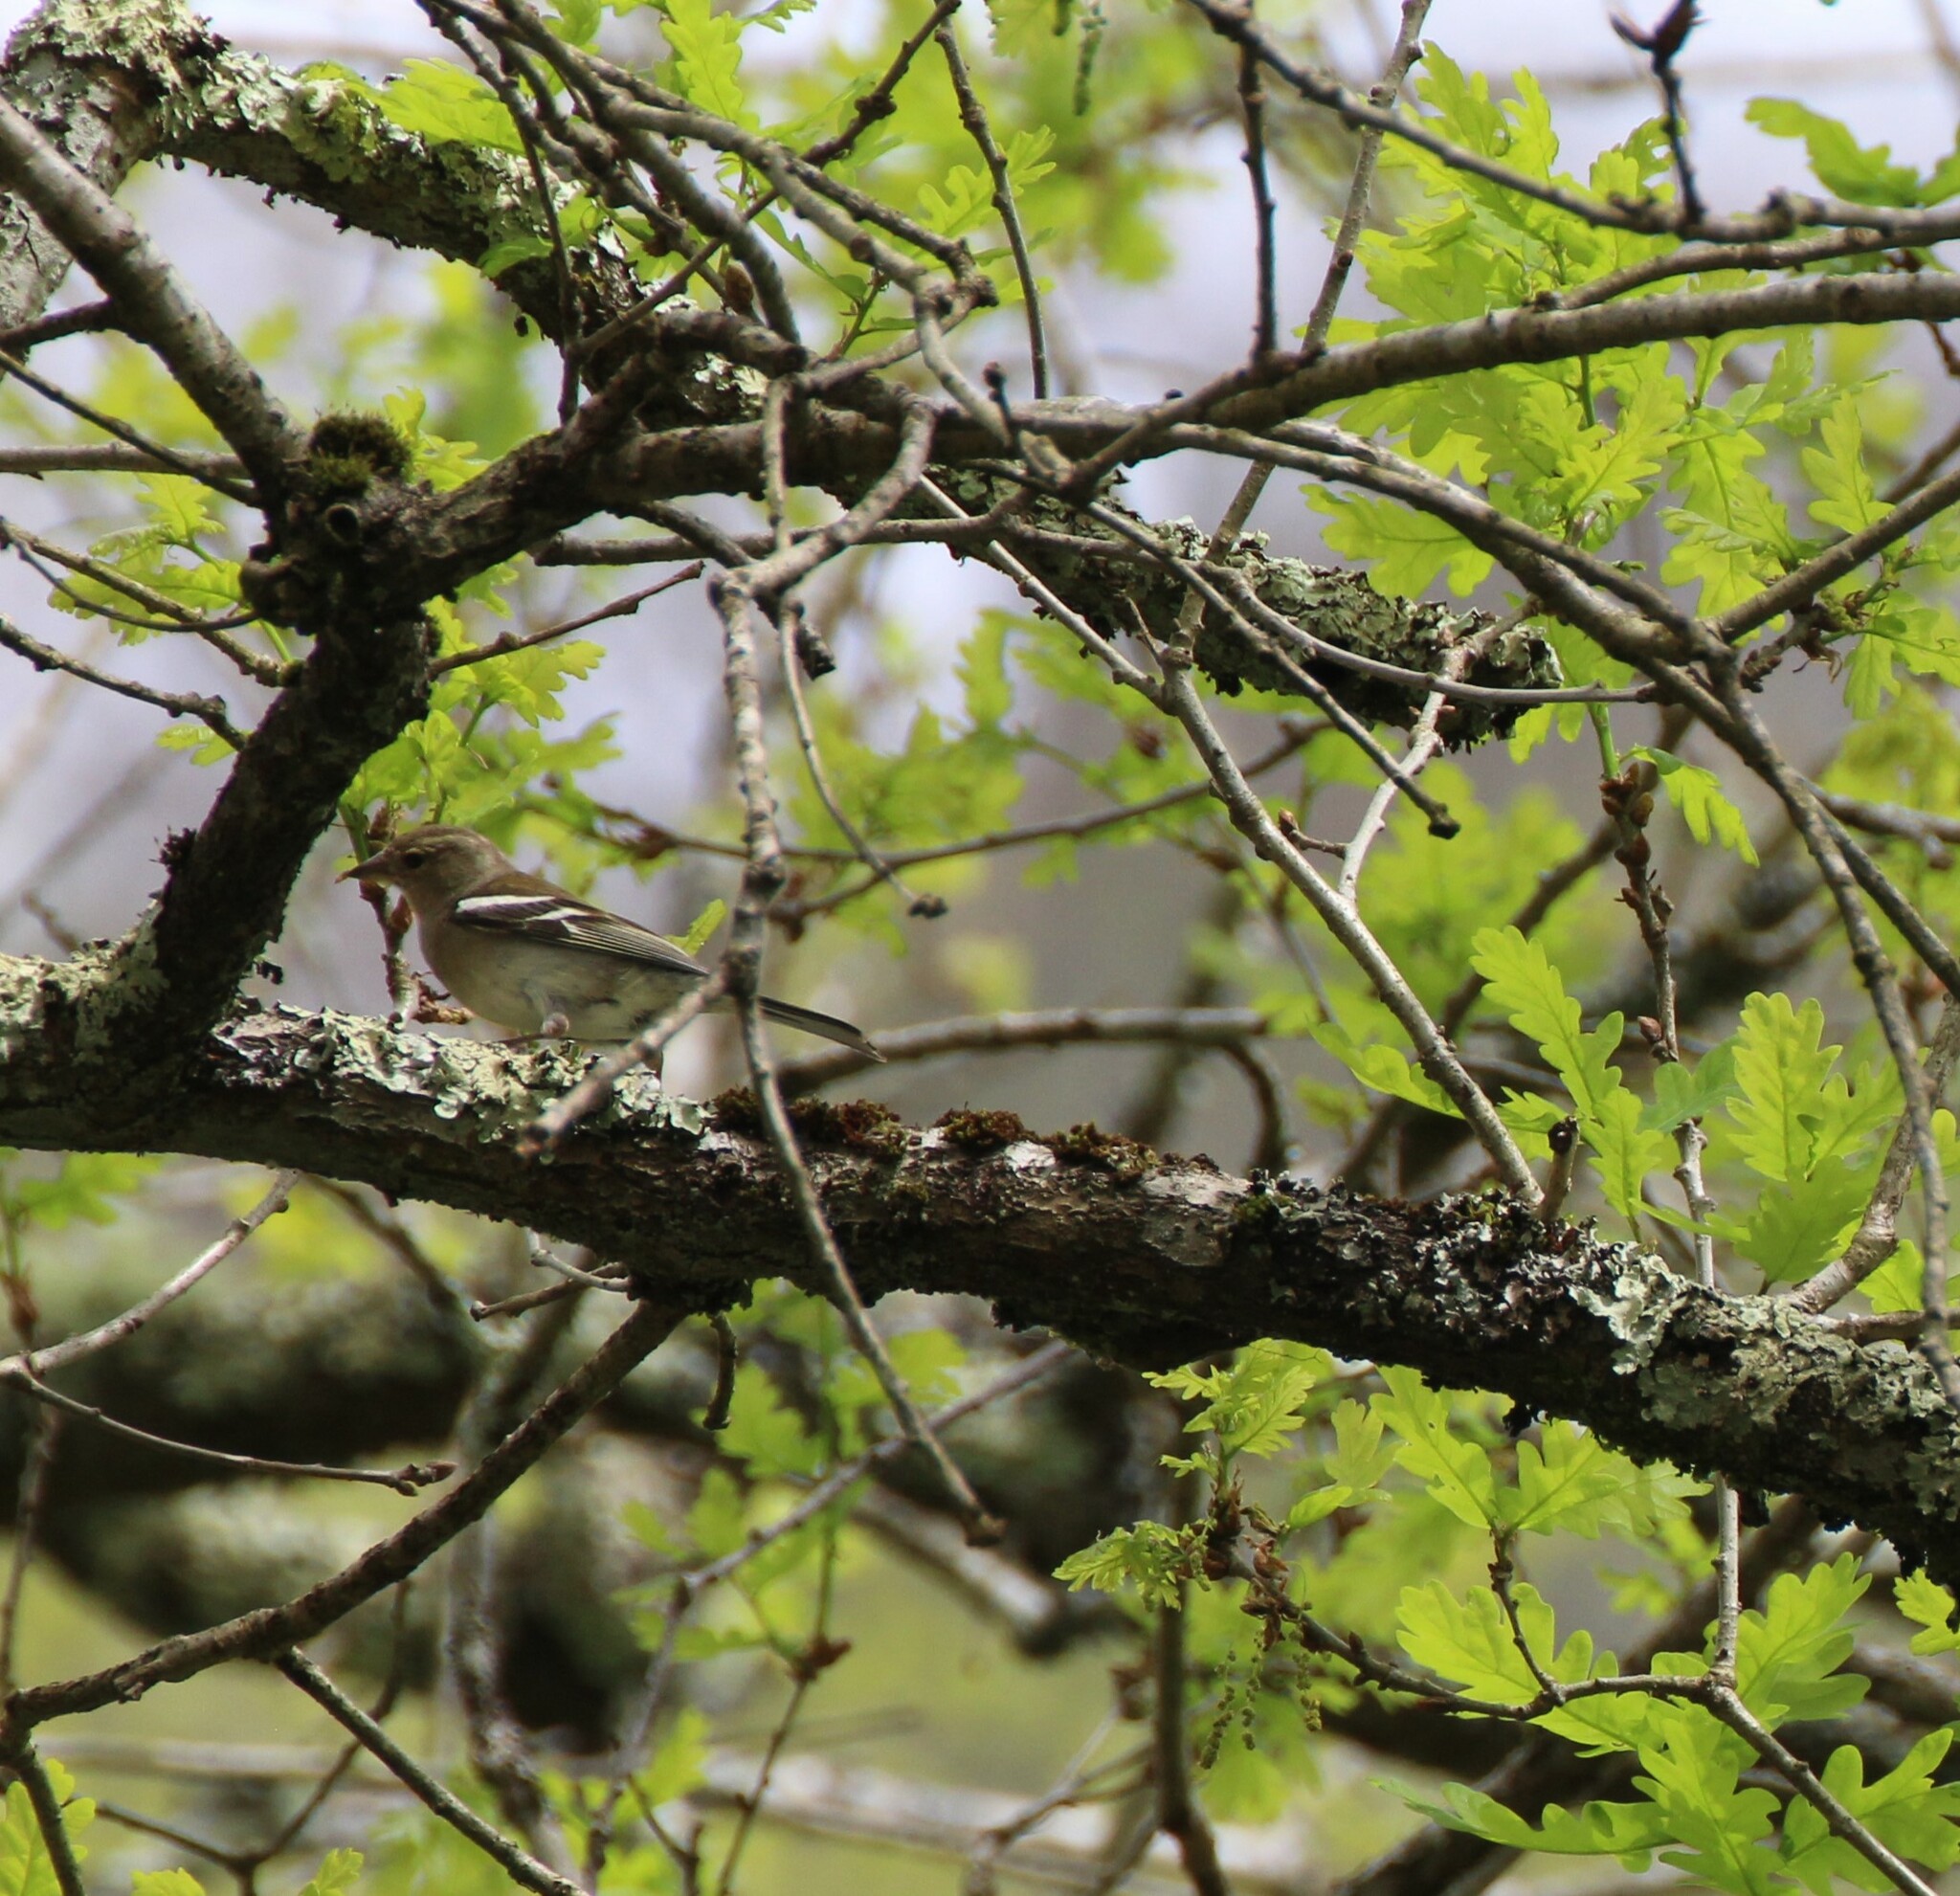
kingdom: Animalia
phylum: Chordata
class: Aves
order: Passeriformes
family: Fringillidae
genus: Fringilla
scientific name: Fringilla coelebs
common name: Common chaffinch
